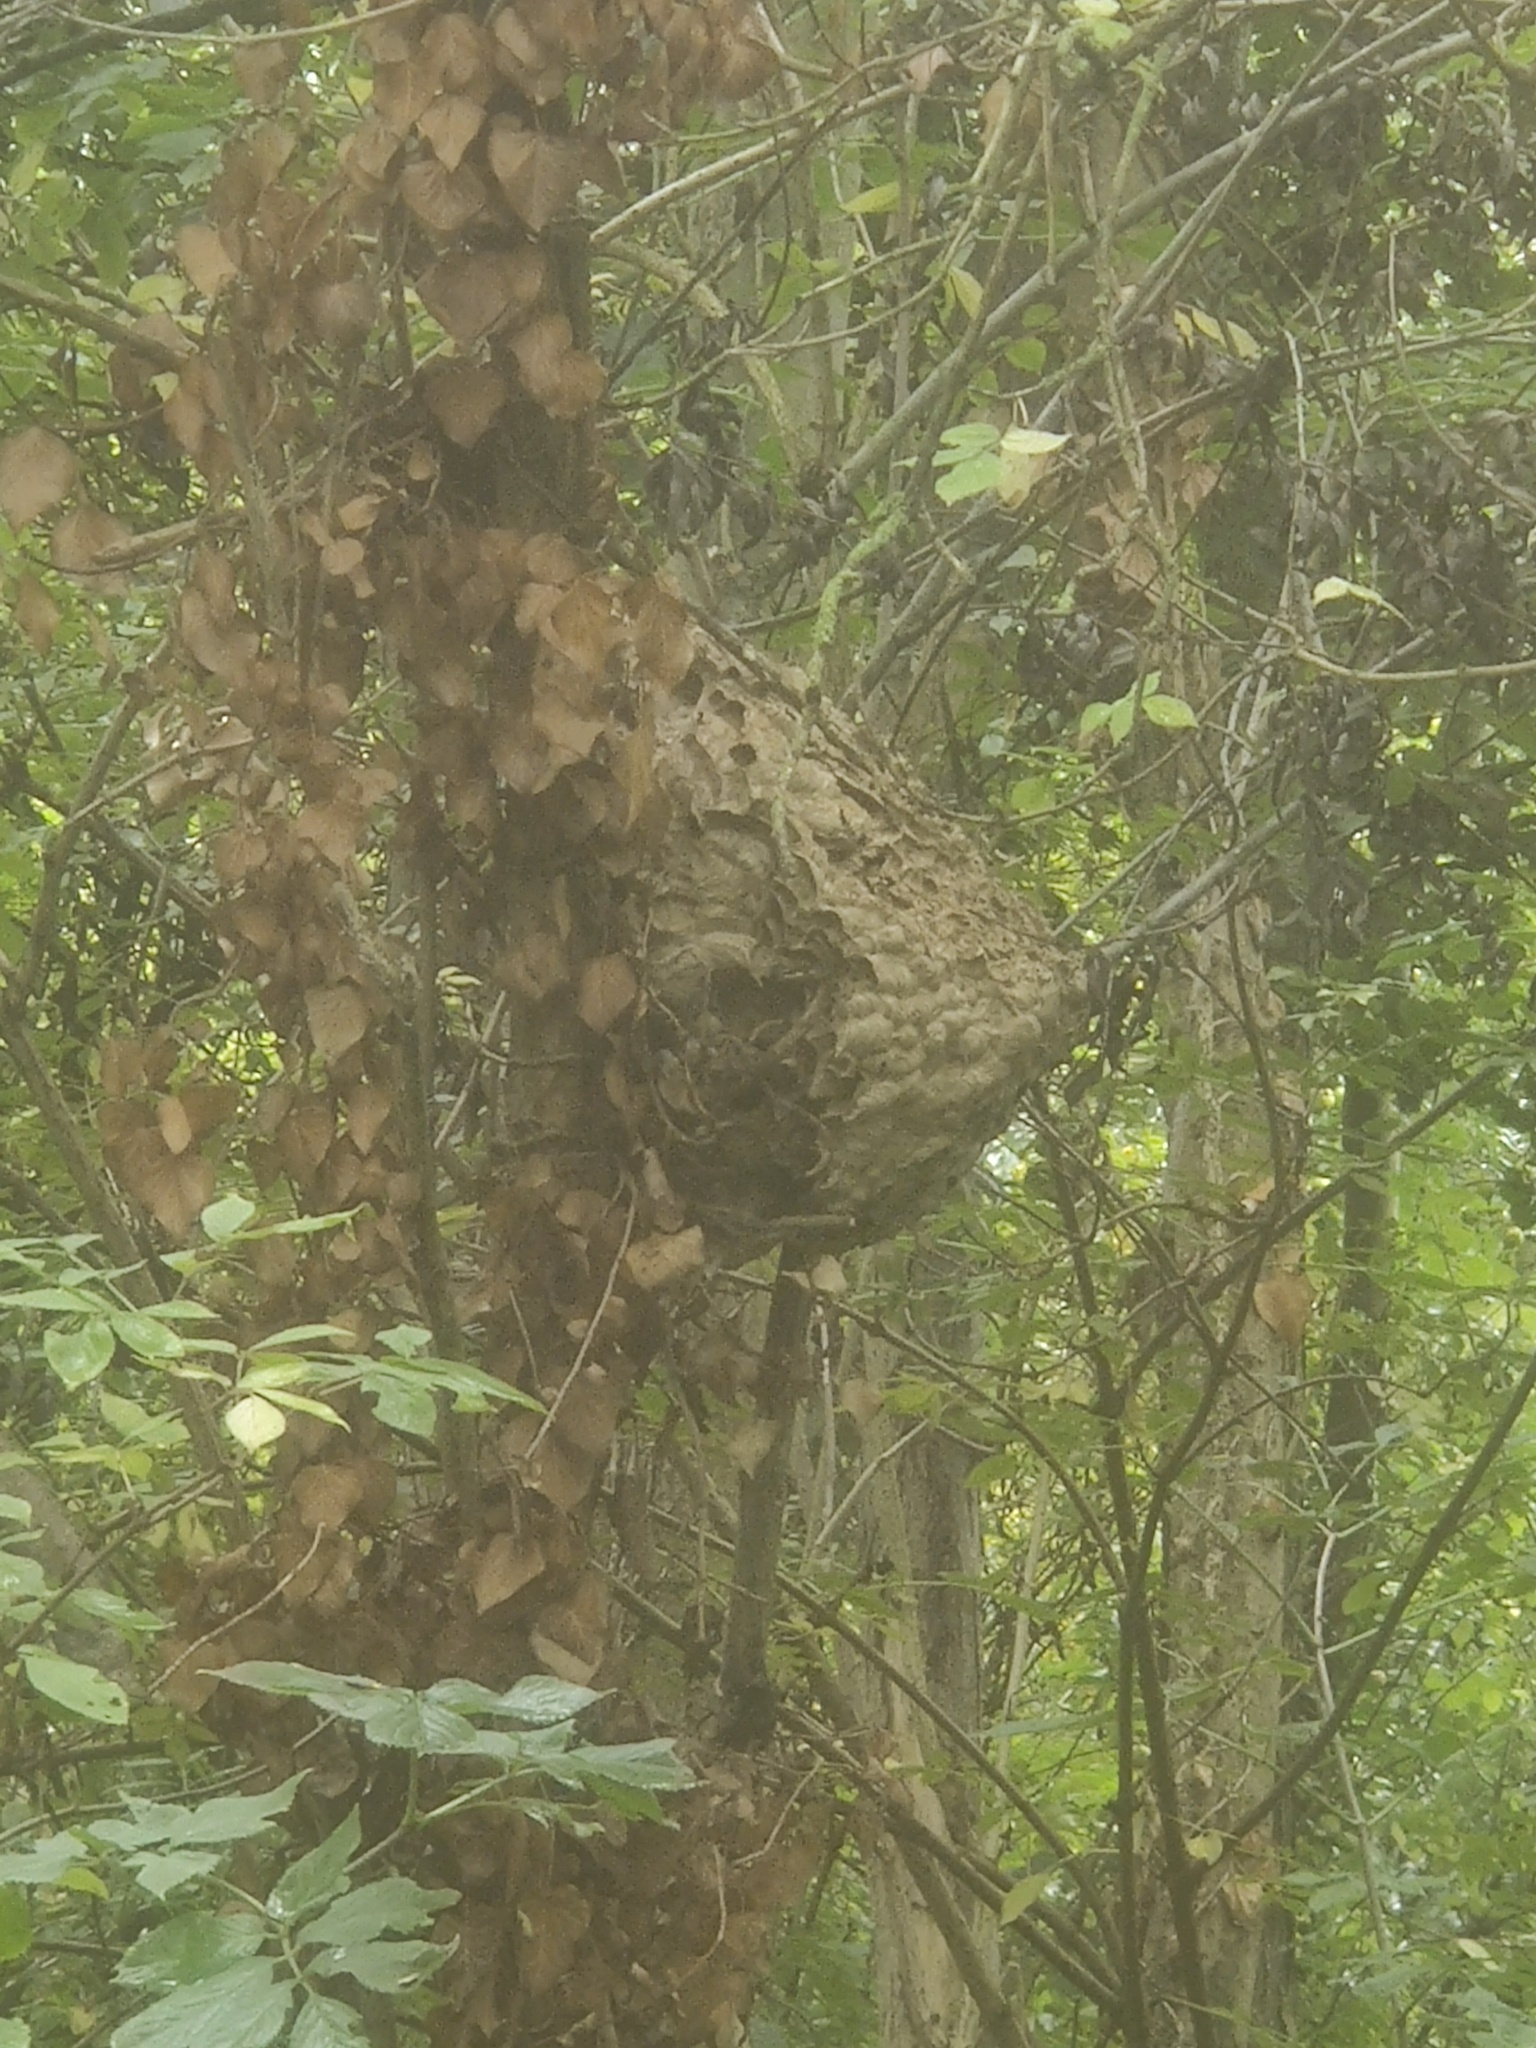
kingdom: Animalia
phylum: Arthropoda
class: Insecta
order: Hymenoptera
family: Vespidae
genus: Vespa
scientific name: Vespa velutina
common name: Asian hornet
